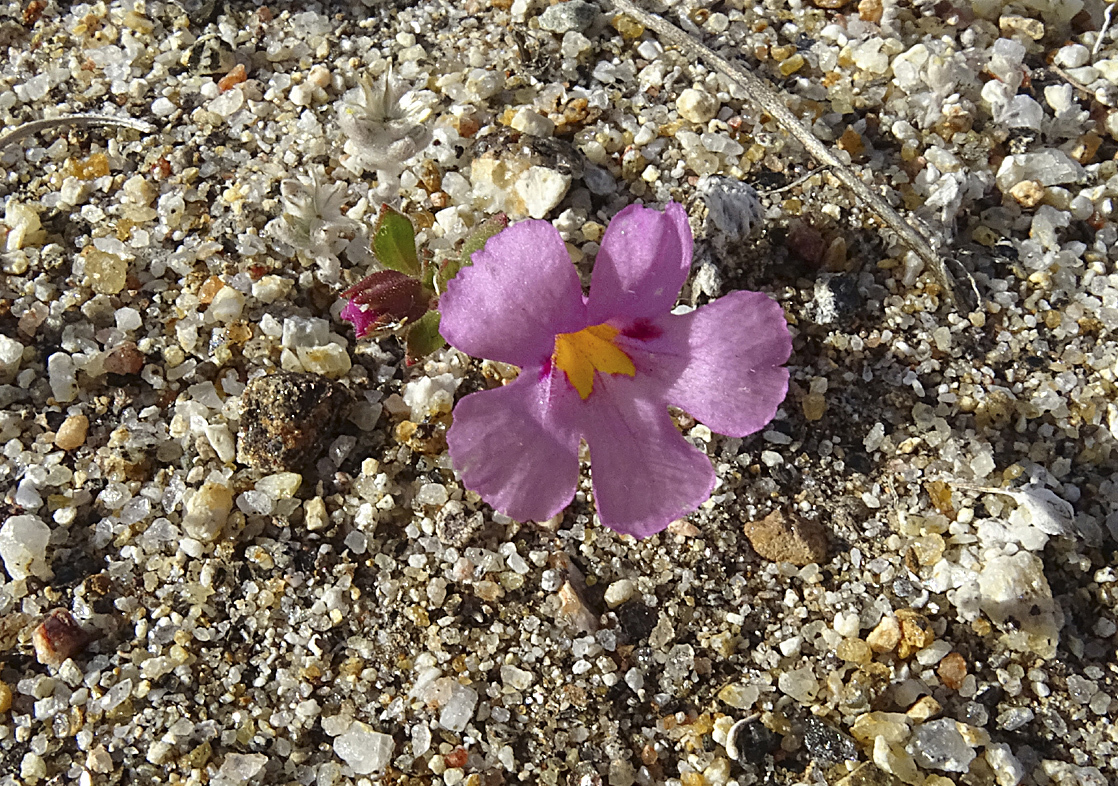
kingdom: Plantae
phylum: Tracheophyta
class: Magnoliopsida
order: Lamiales
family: Phrymaceae
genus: Diplacus
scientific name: Diplacus bigelovii
